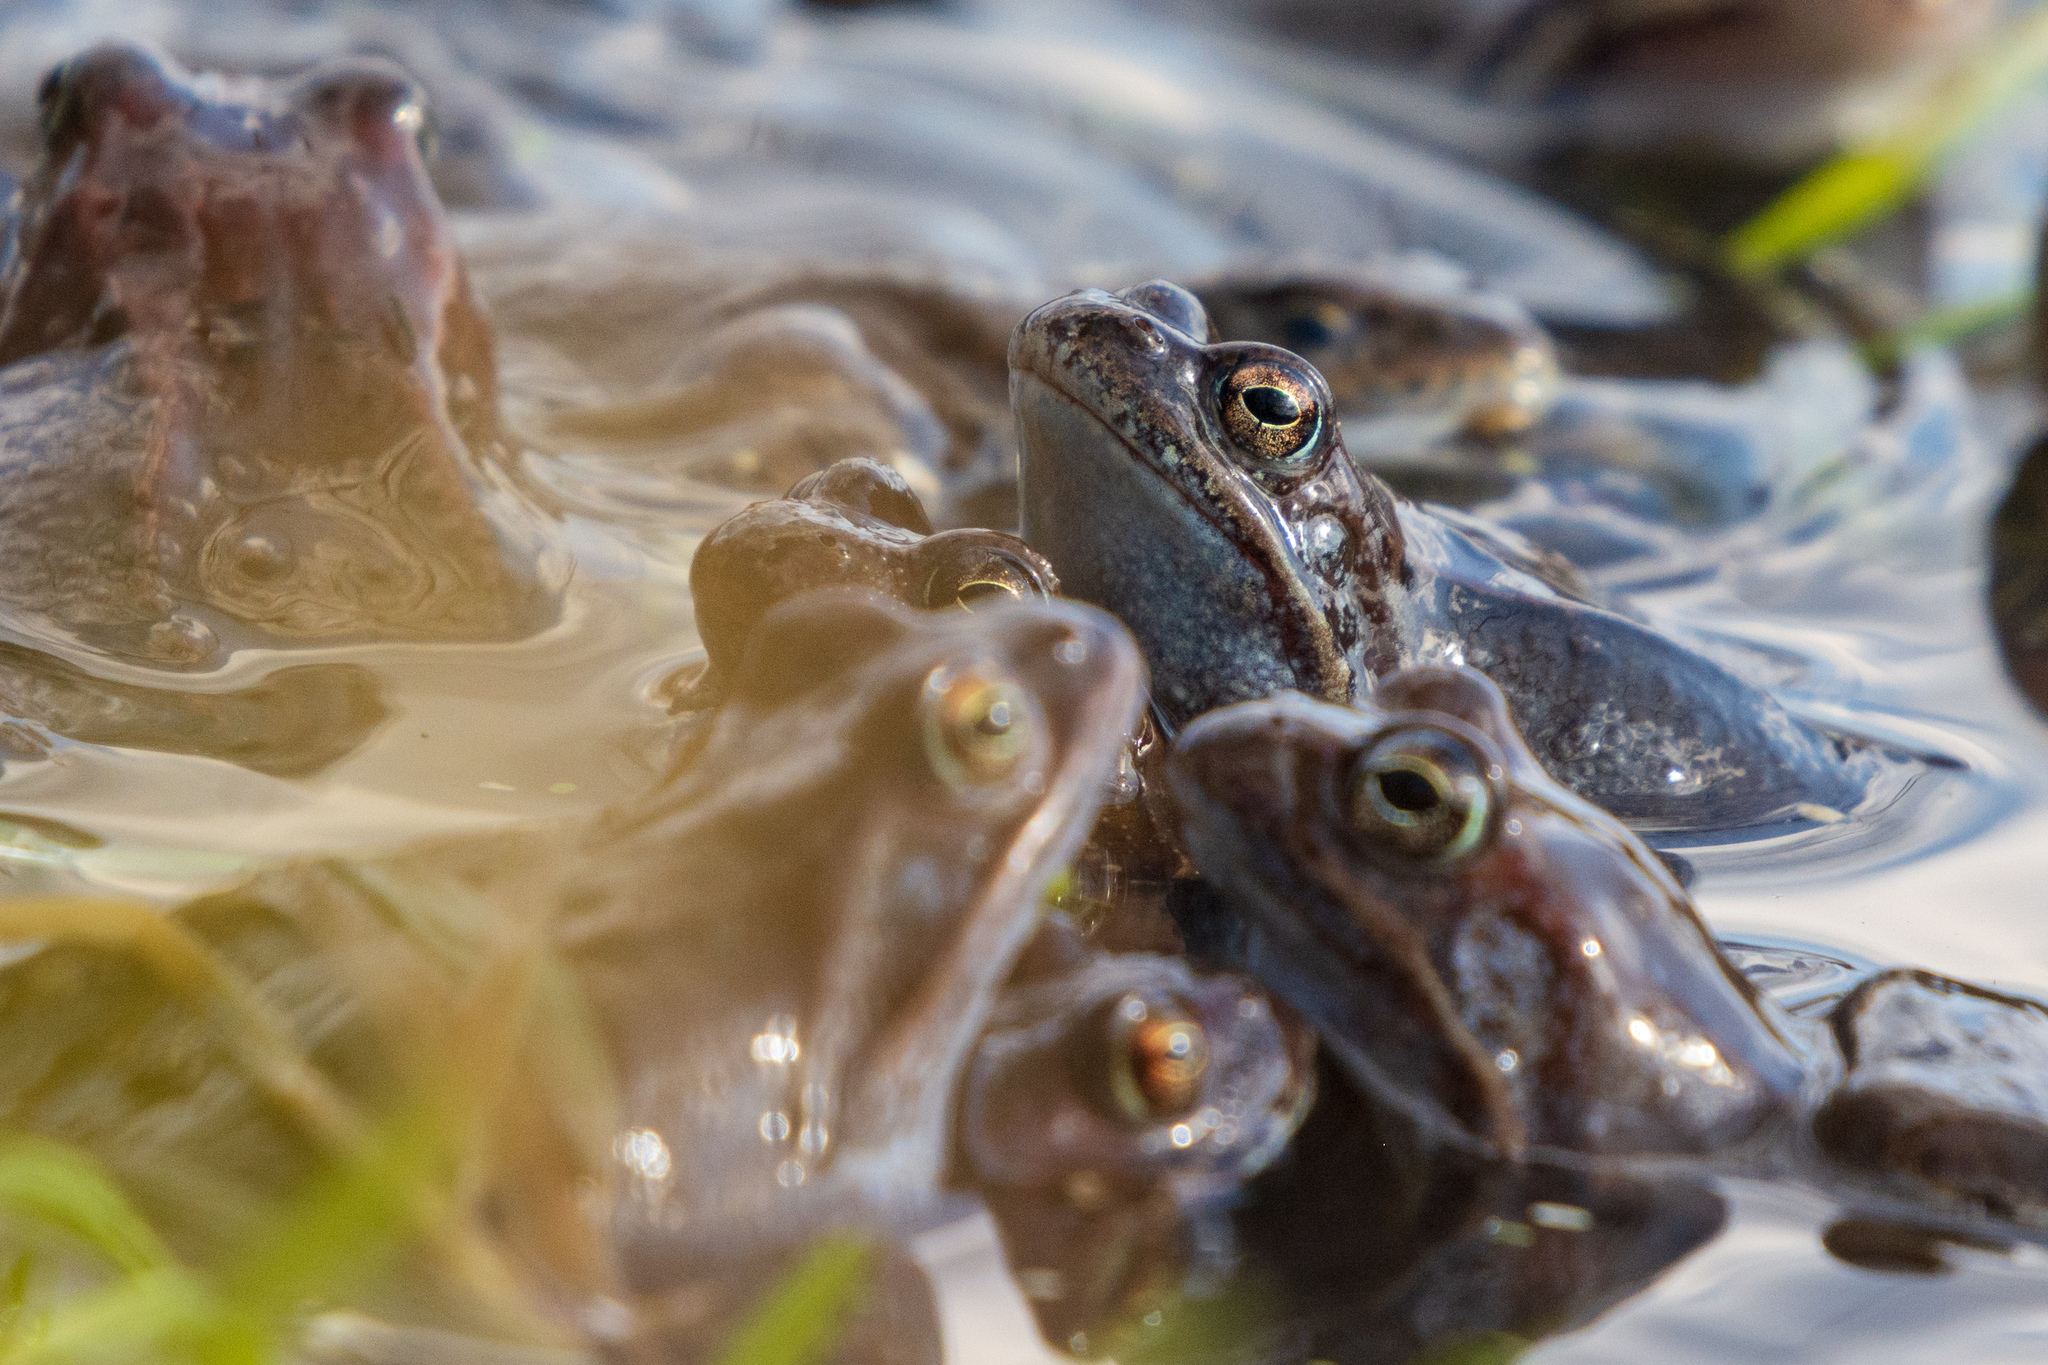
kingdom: Animalia
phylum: Chordata
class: Amphibia
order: Anura
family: Ranidae
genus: Rana
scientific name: Rana temporaria
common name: Common frog
